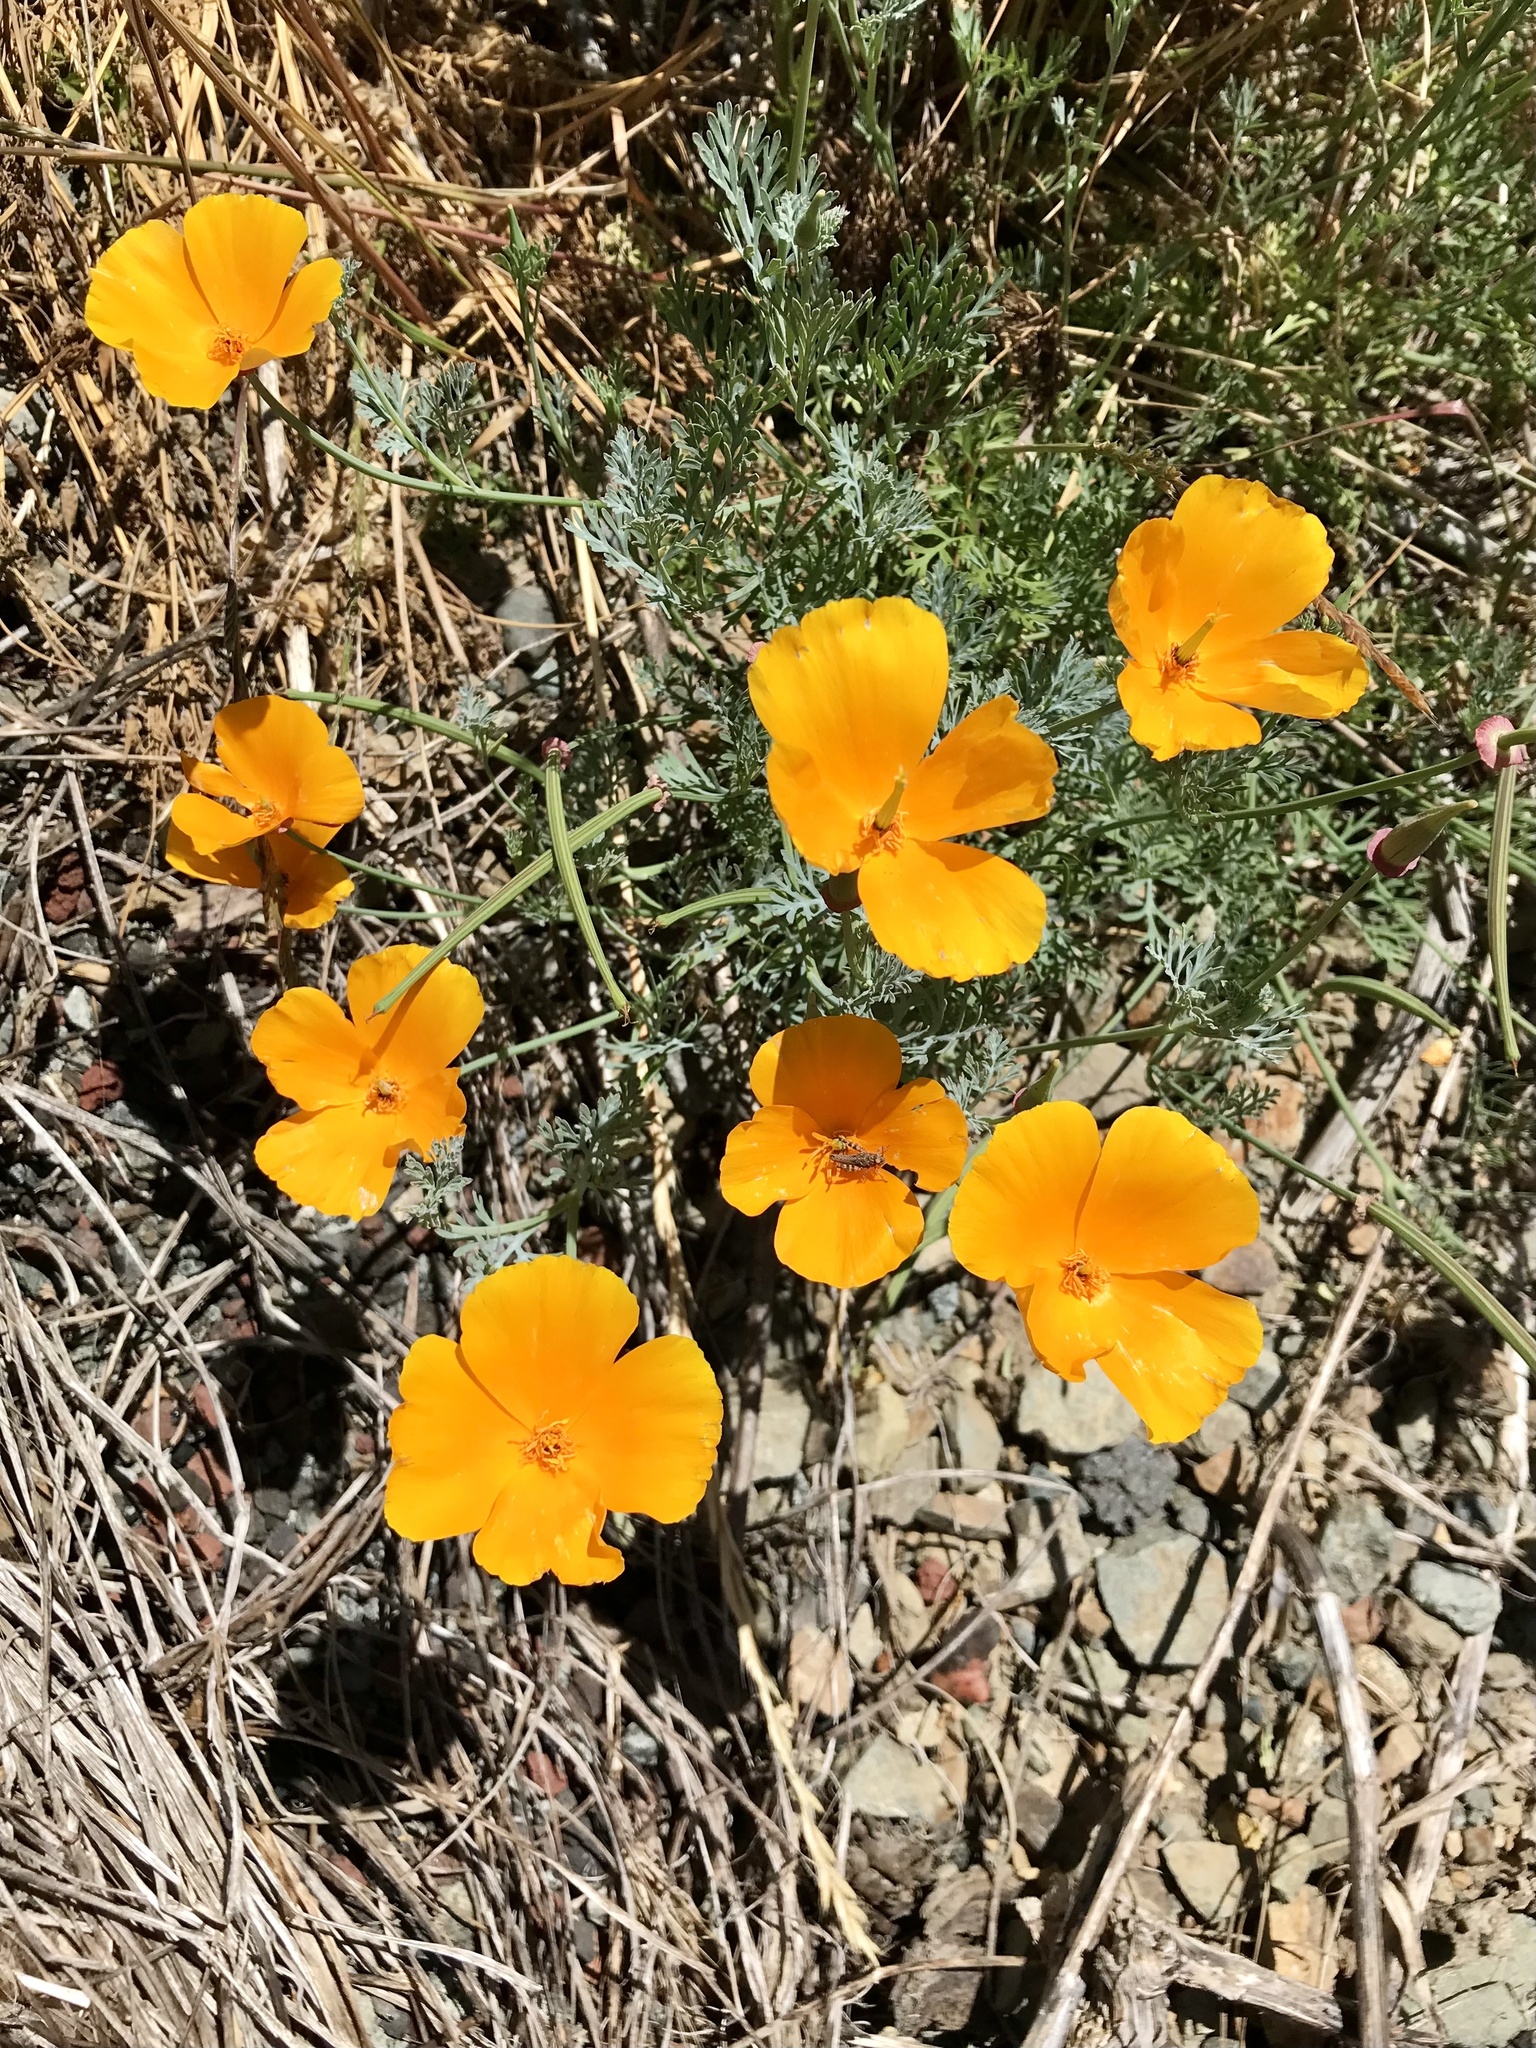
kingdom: Plantae
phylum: Tracheophyta
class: Magnoliopsida
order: Ranunculales
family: Papaveraceae
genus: Eschscholzia
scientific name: Eschscholzia californica
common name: California poppy
